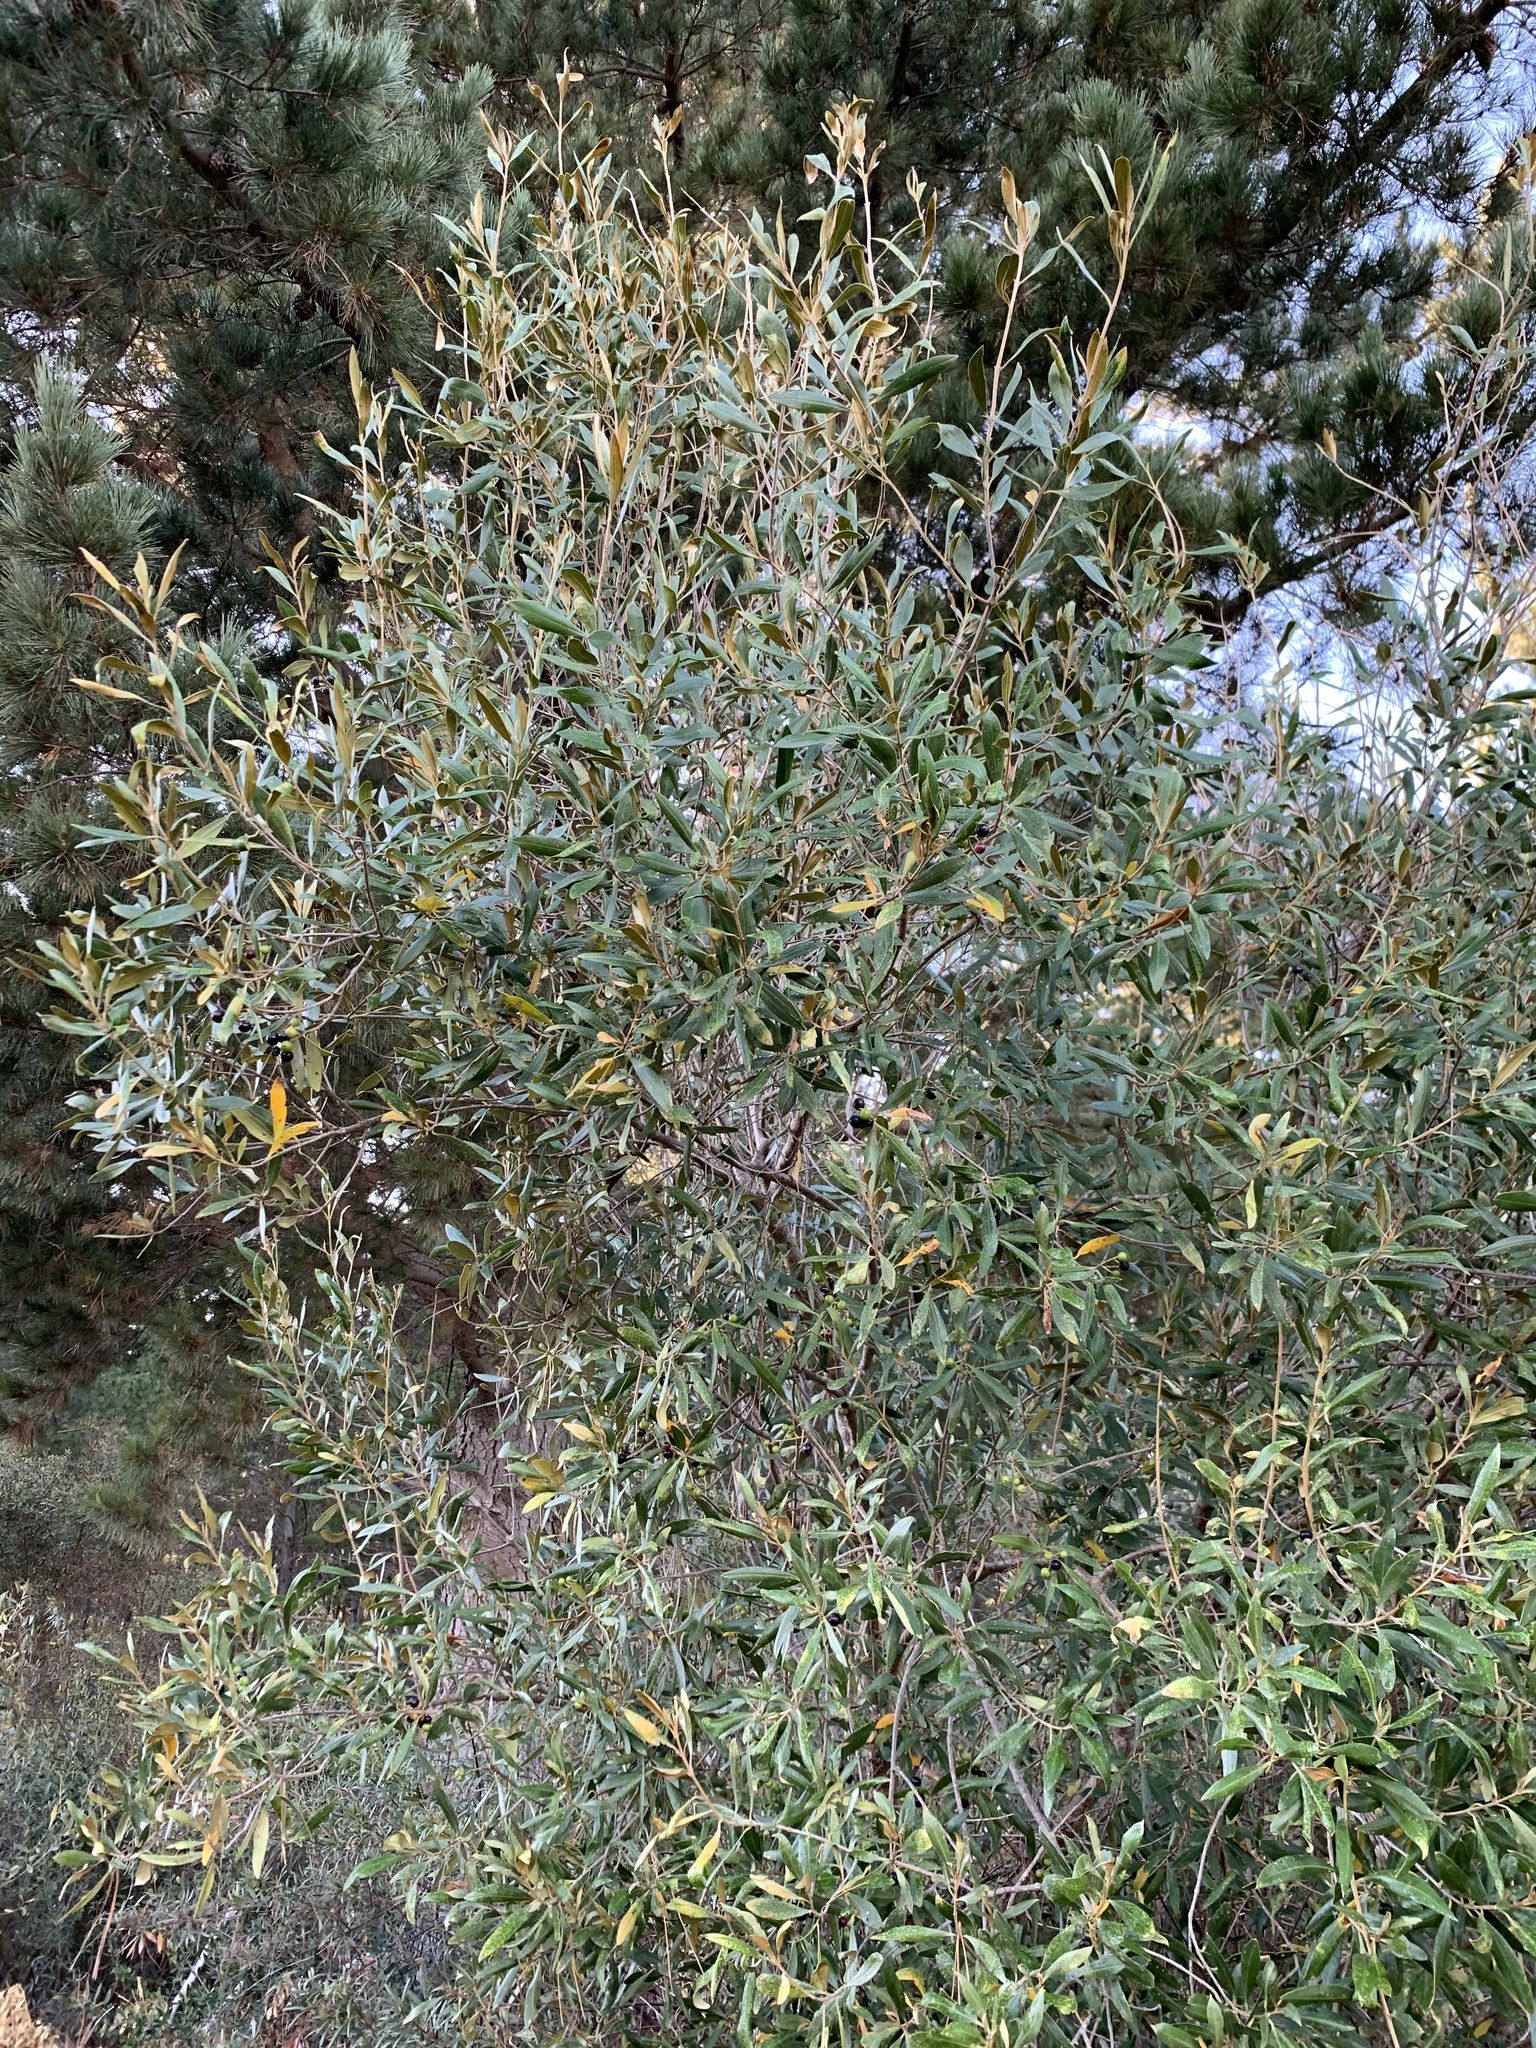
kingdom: Plantae
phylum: Tracheophyta
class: Magnoliopsida
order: Lamiales
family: Oleaceae
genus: Olea
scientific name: Olea europaea
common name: Olive
